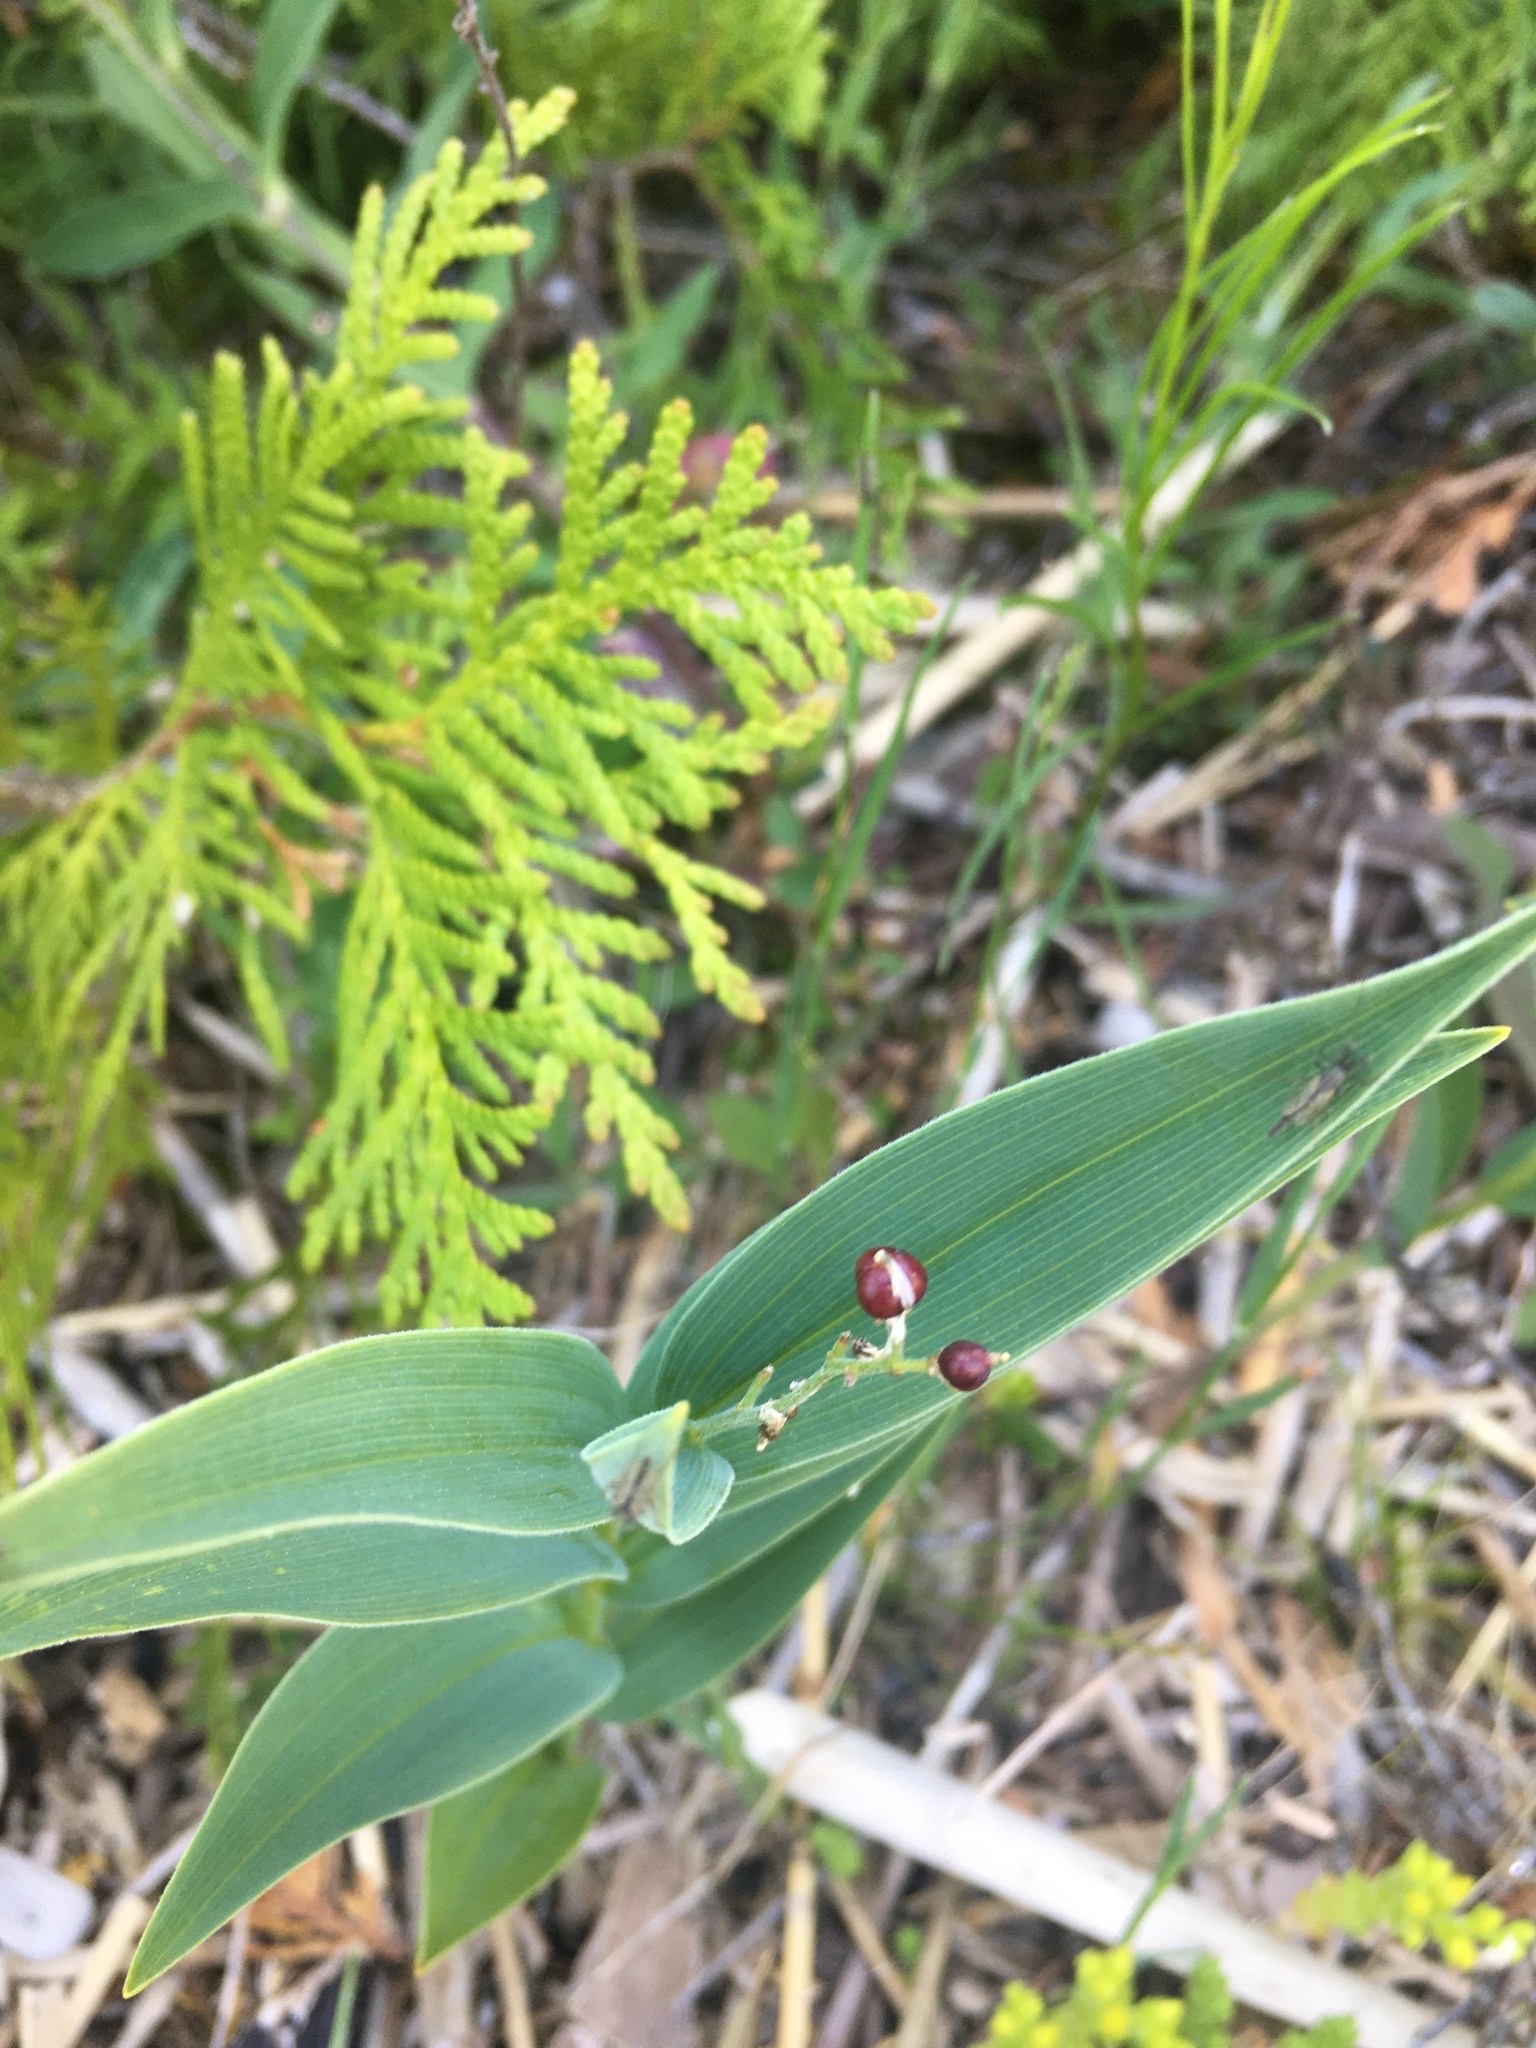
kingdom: Plantae
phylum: Tracheophyta
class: Liliopsida
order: Asparagales
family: Asparagaceae
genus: Maianthemum
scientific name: Maianthemum stellatum
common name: Little false solomon's seal
